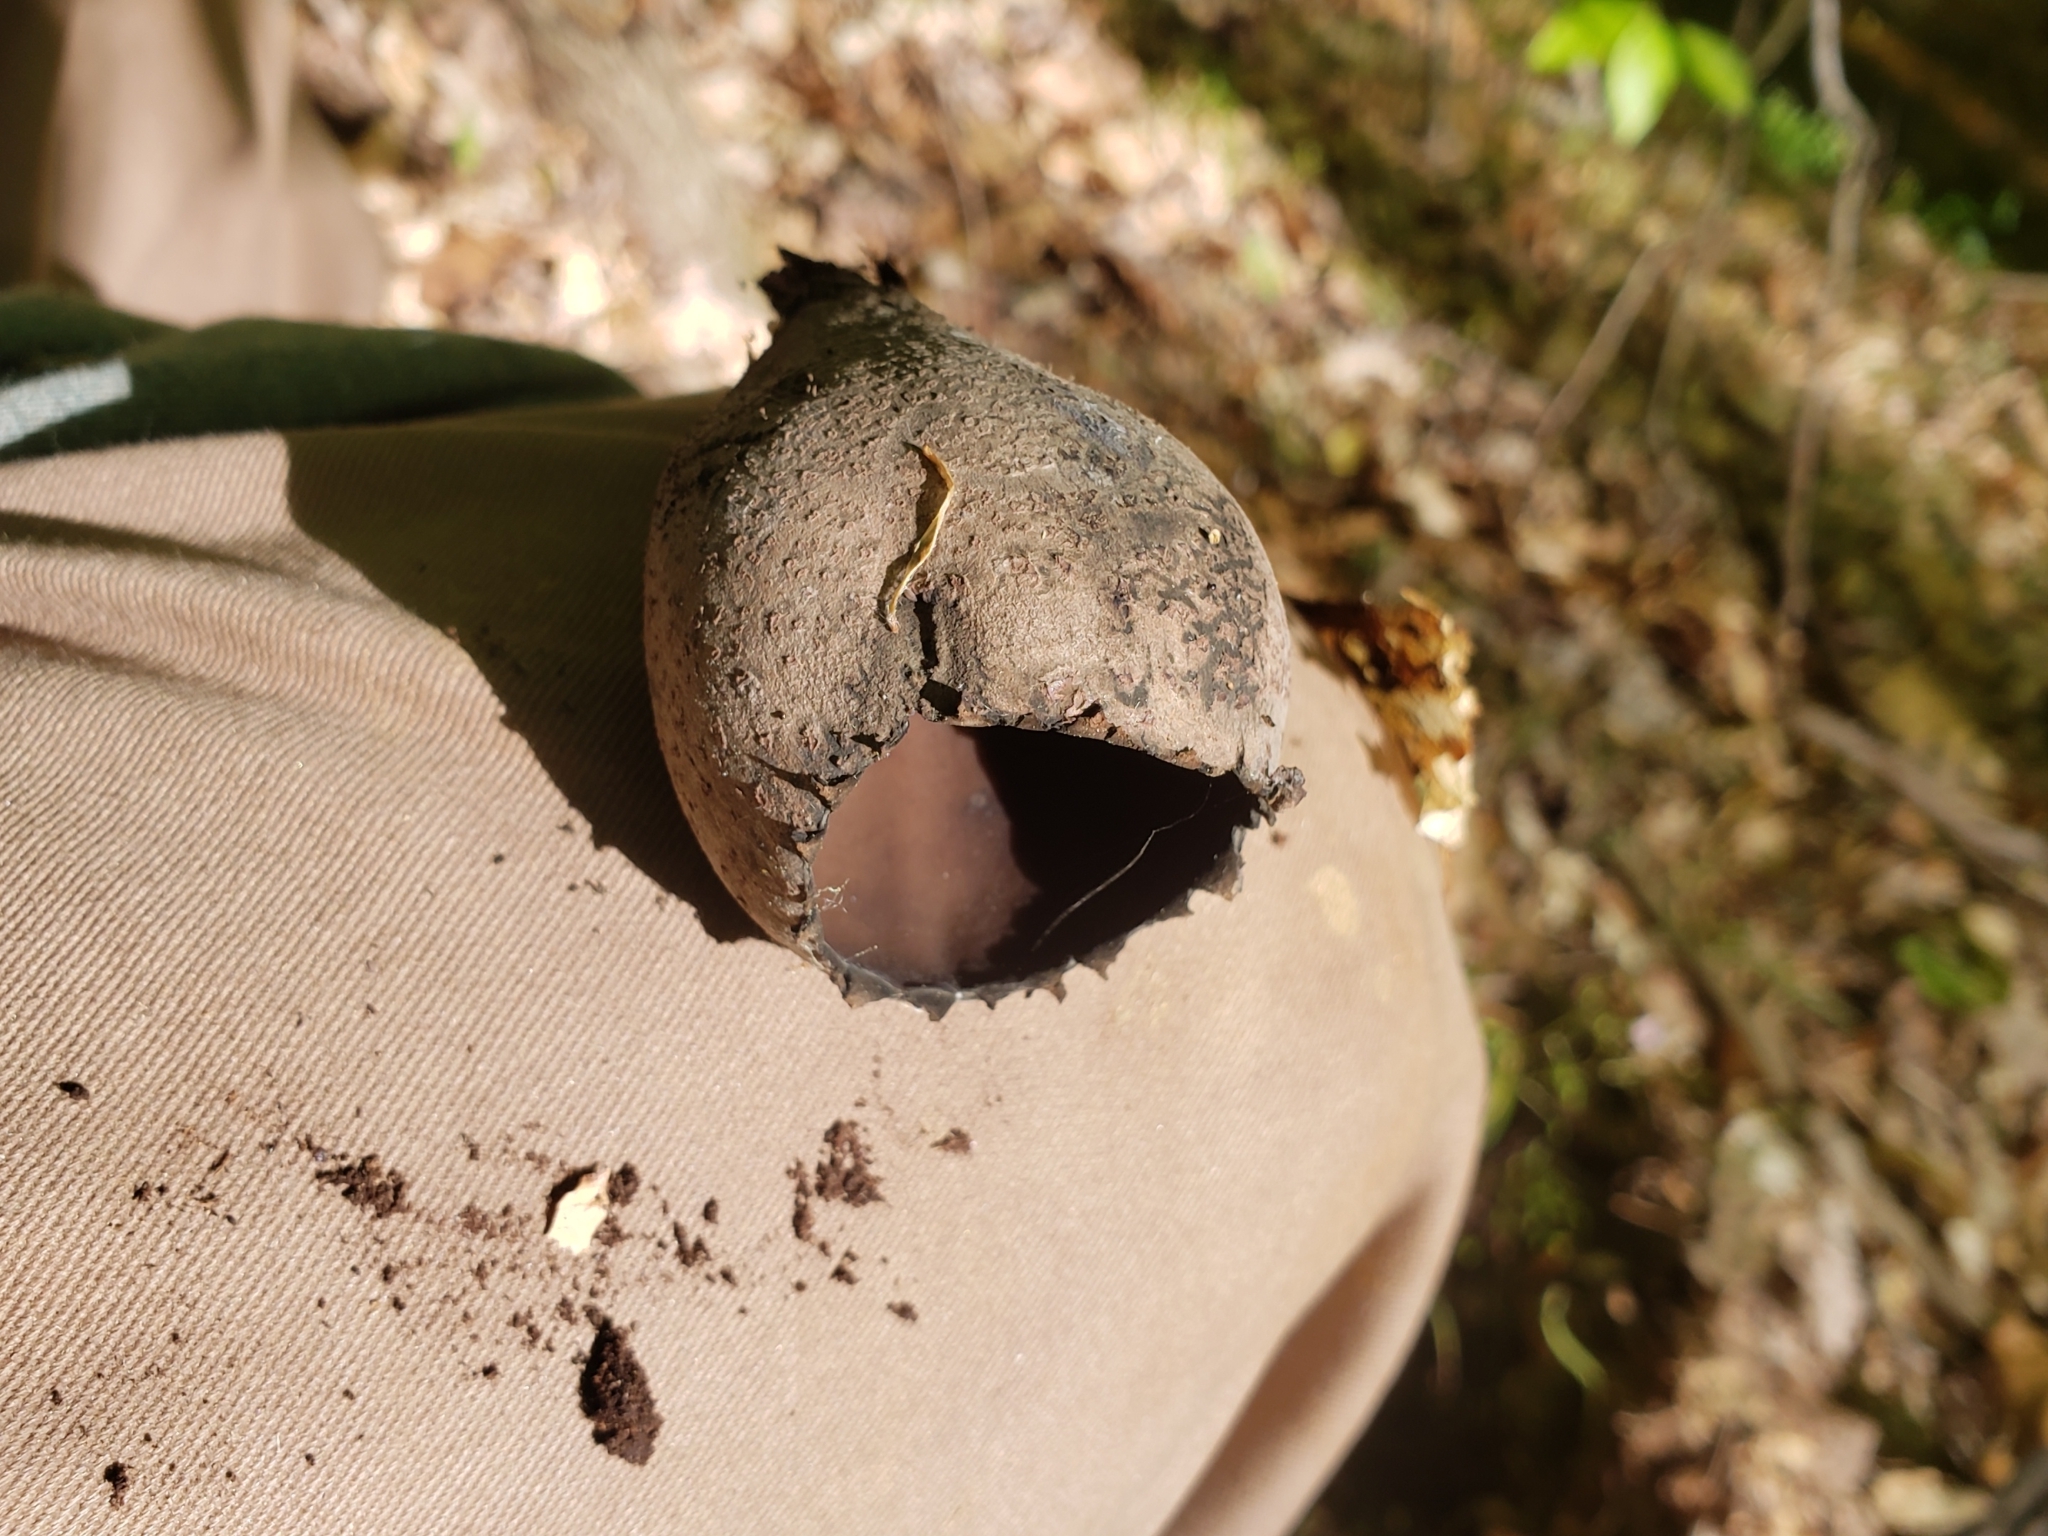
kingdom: Fungi
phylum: Ascomycota
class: Pezizomycetes
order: Pezizales
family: Sarcosomataceae
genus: Urnula
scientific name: Urnula craterium
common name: Devil's urn
